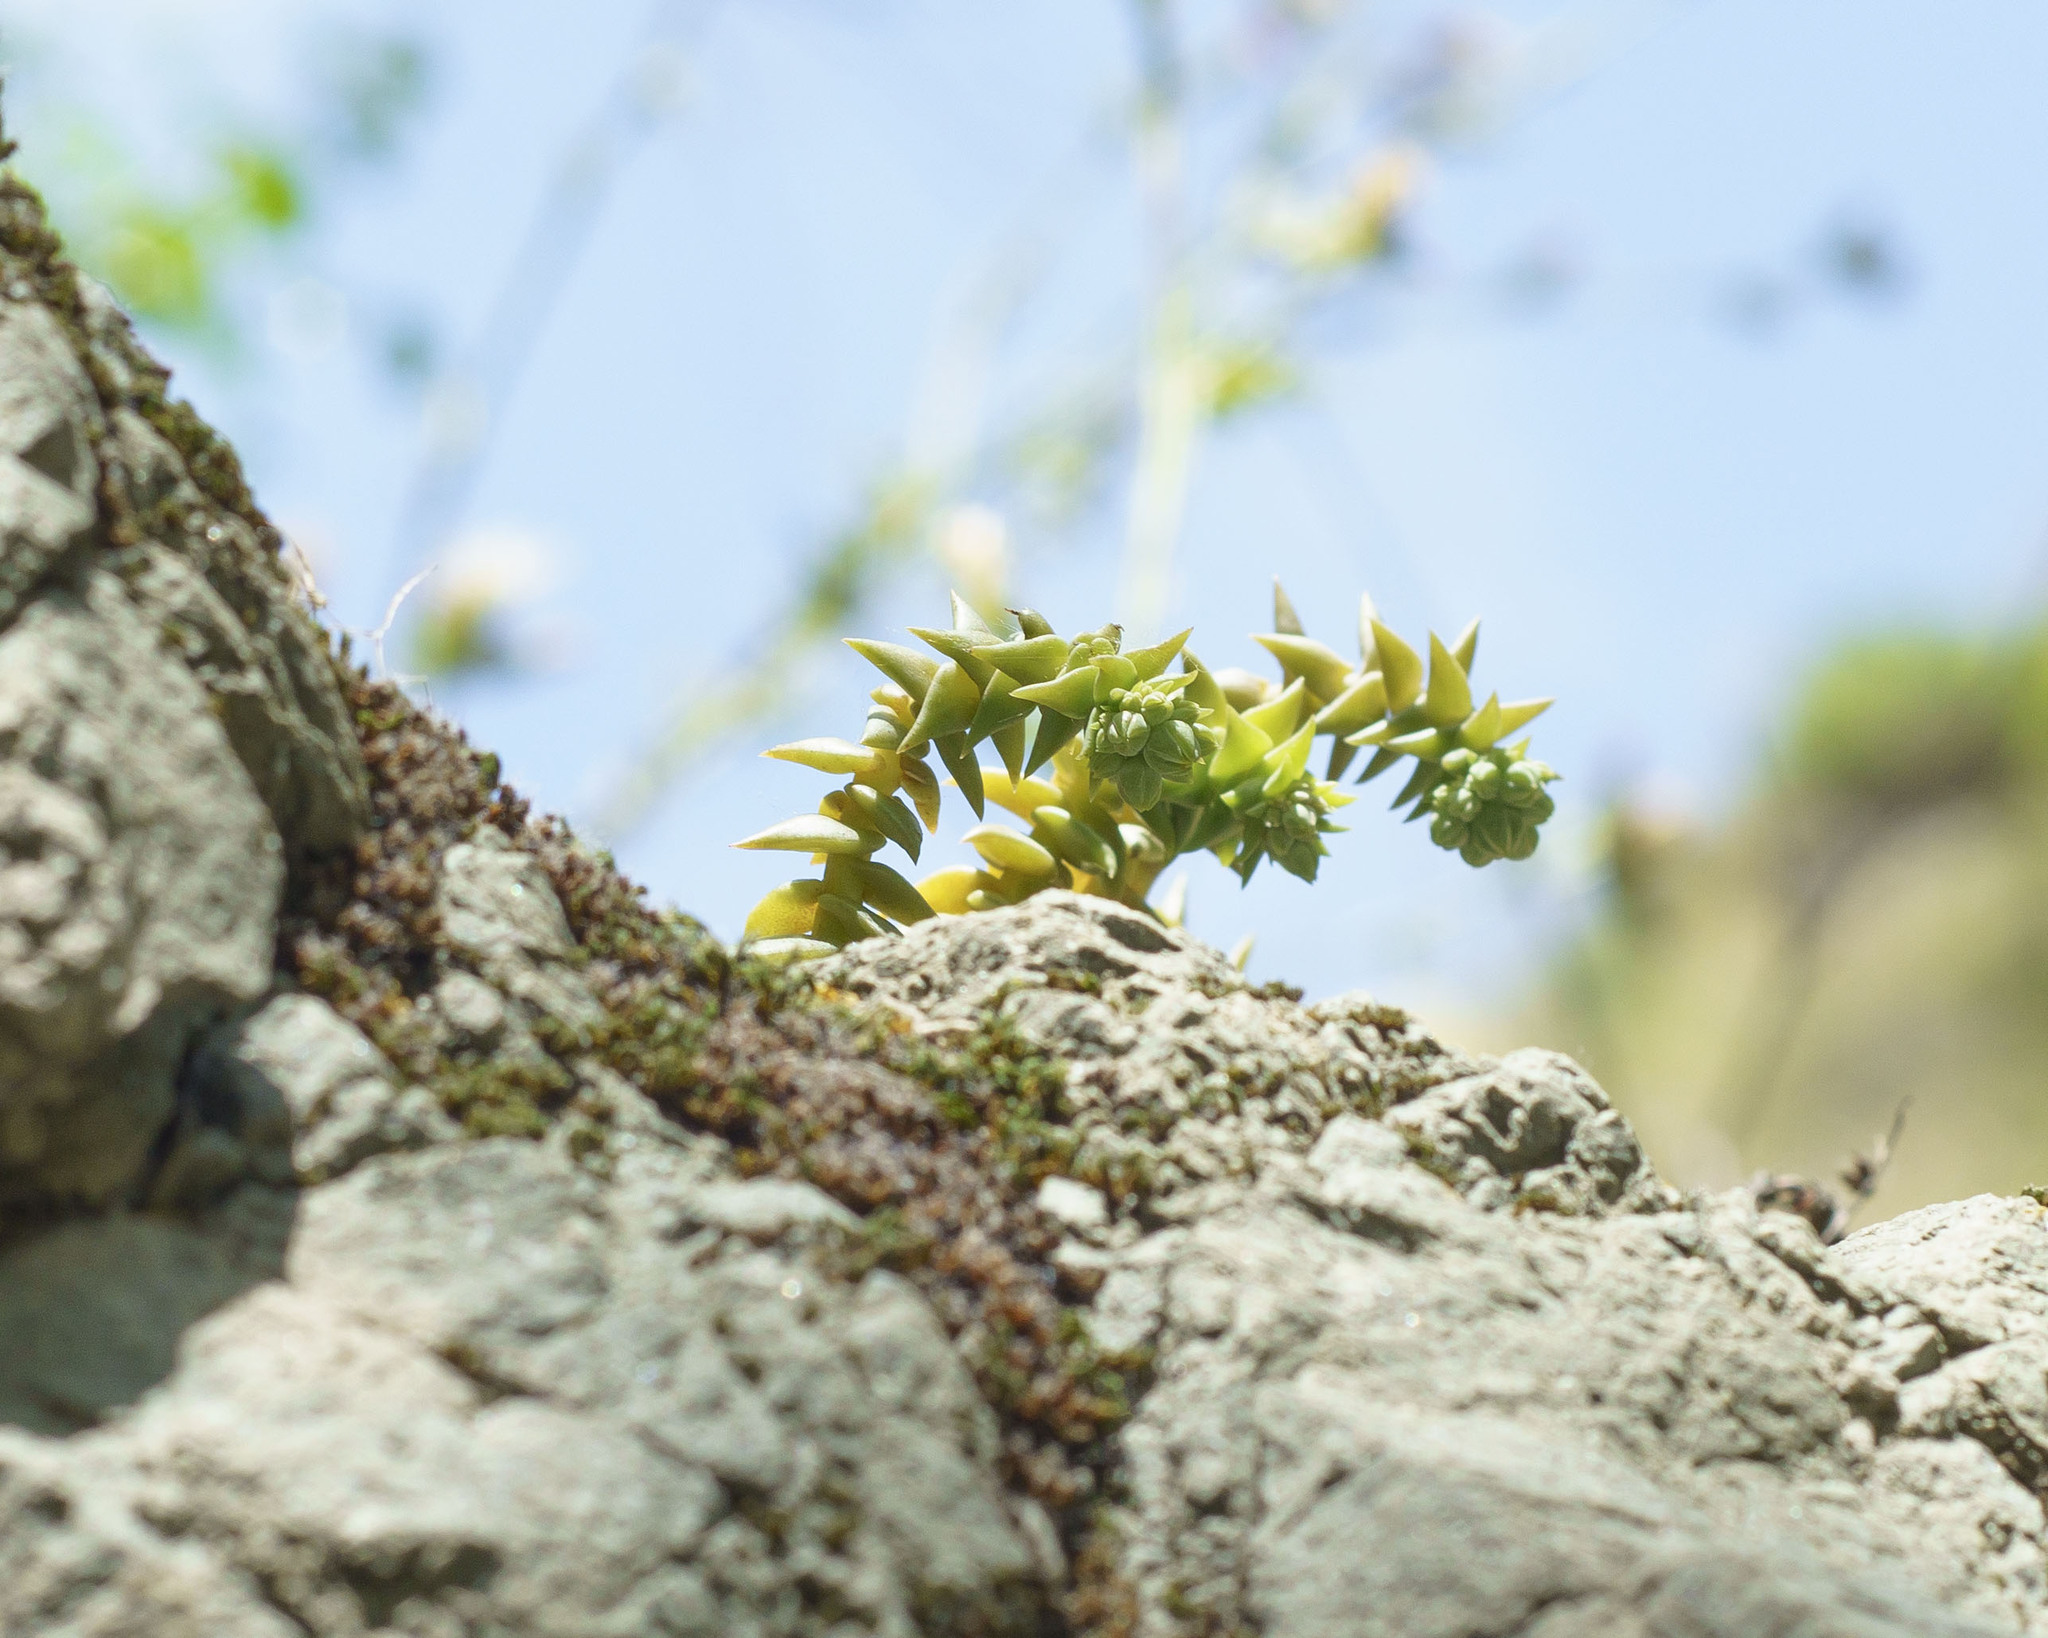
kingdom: Plantae
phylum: Tracheophyta
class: Magnoliopsida
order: Saxifragales
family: Crassulaceae
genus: Dudleya
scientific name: Dudleya cymosa
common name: Canyon dudleya
